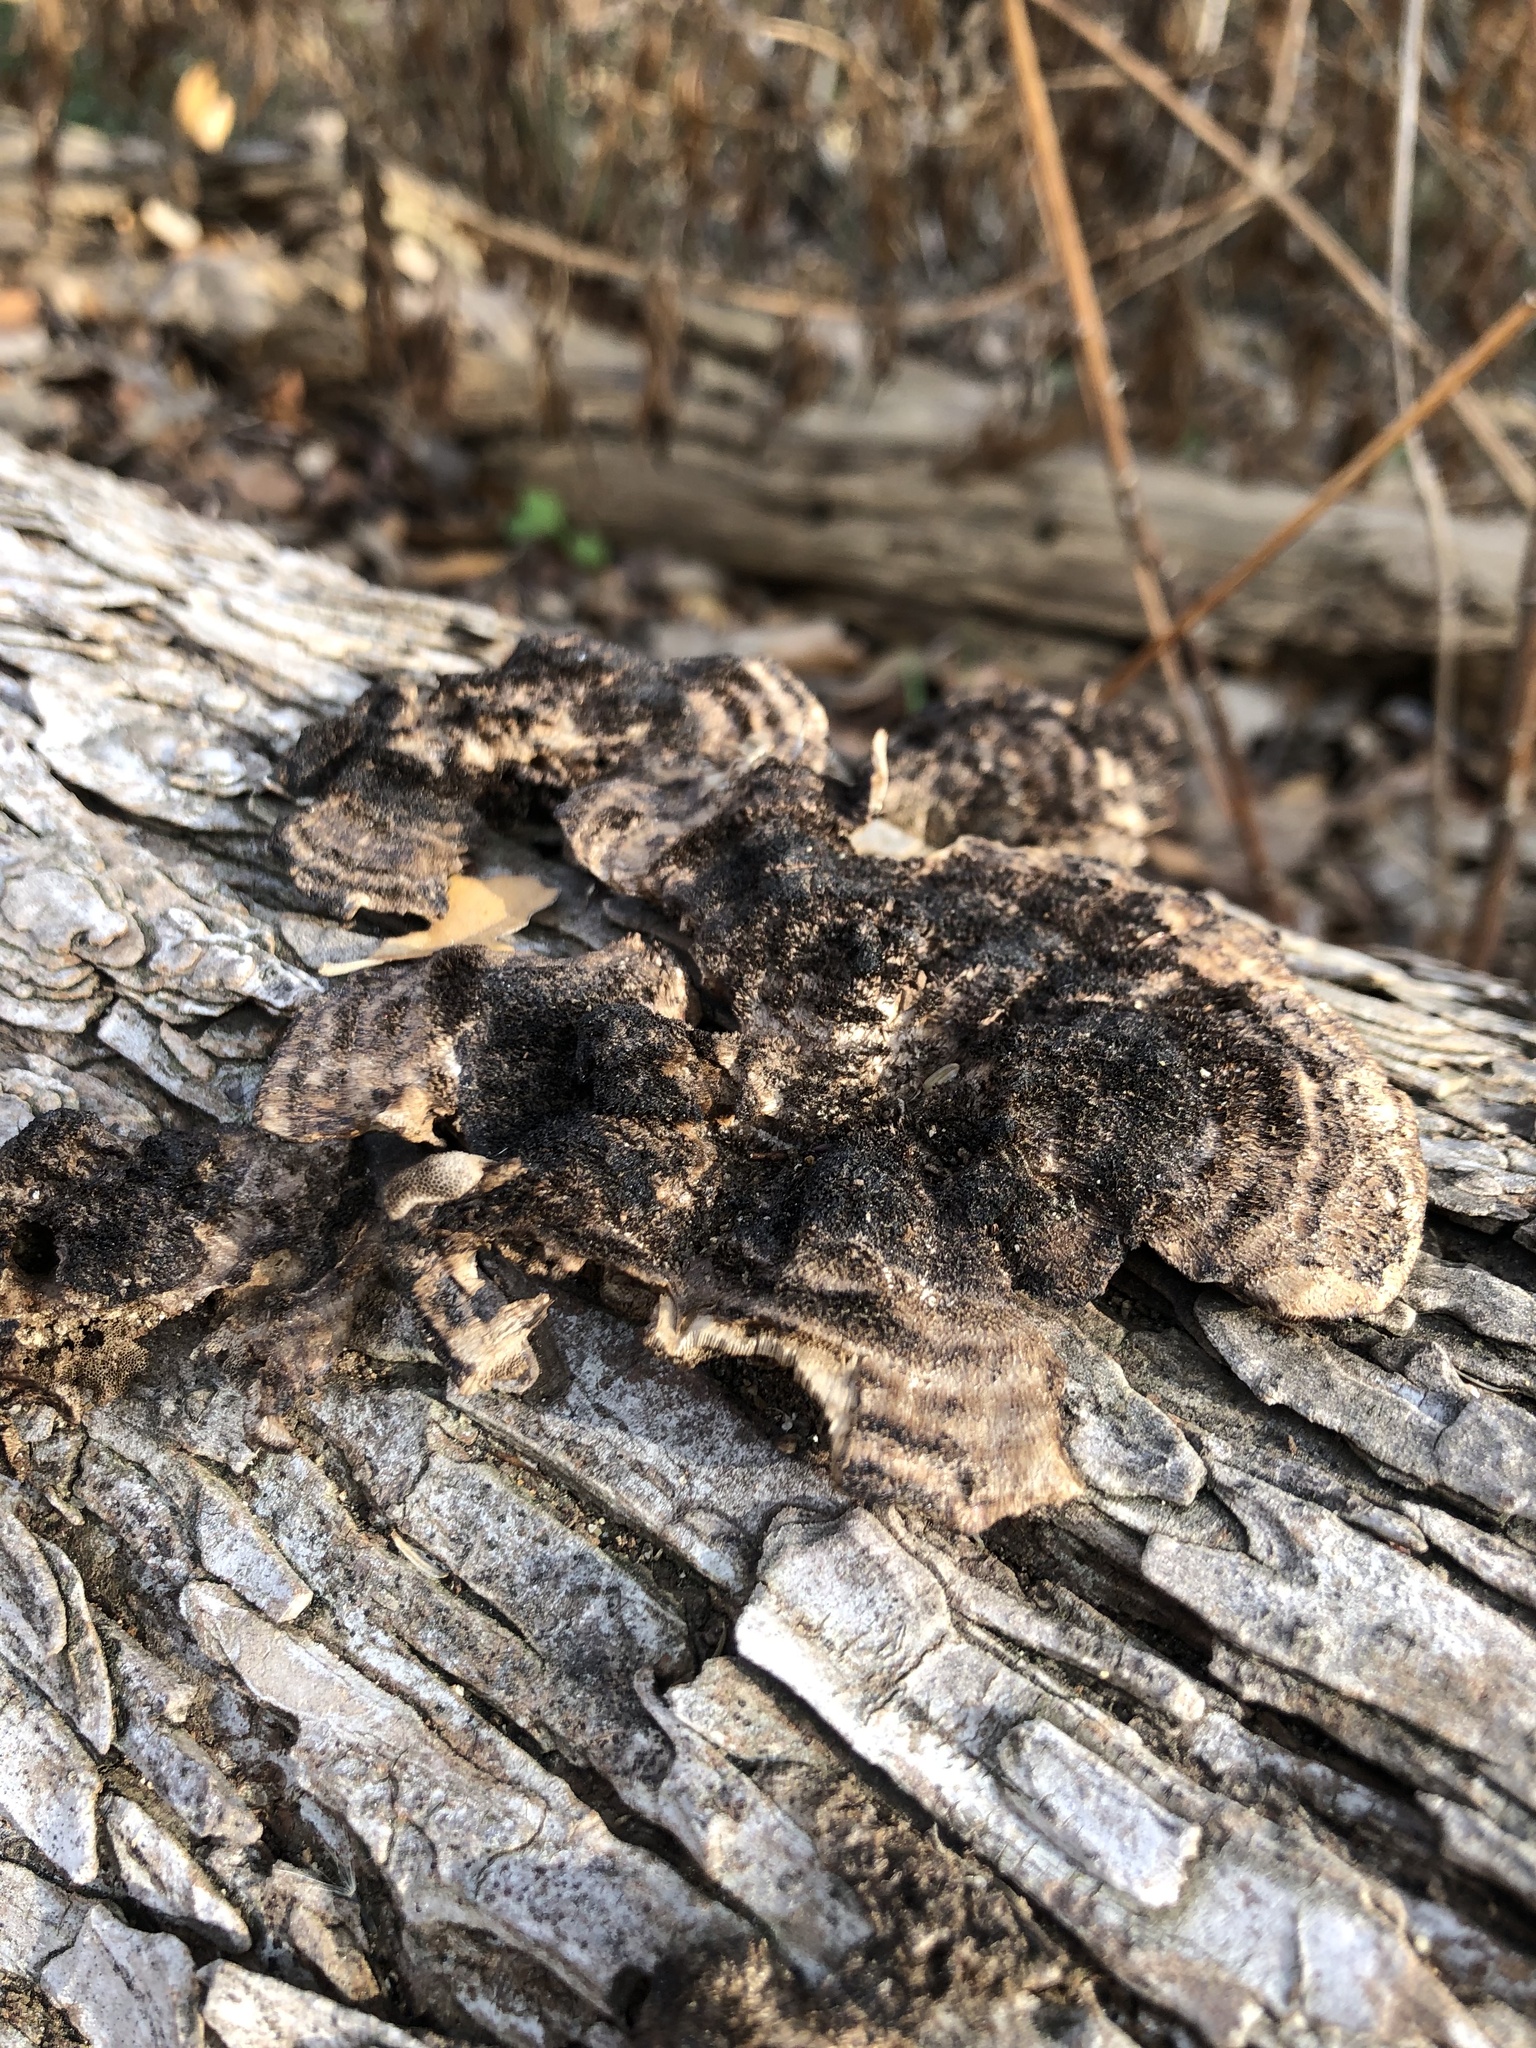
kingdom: Fungi
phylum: Basidiomycota
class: Agaricomycetes
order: Polyporales
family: Cerrenaceae
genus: Cerrena
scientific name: Cerrena hydnoides
